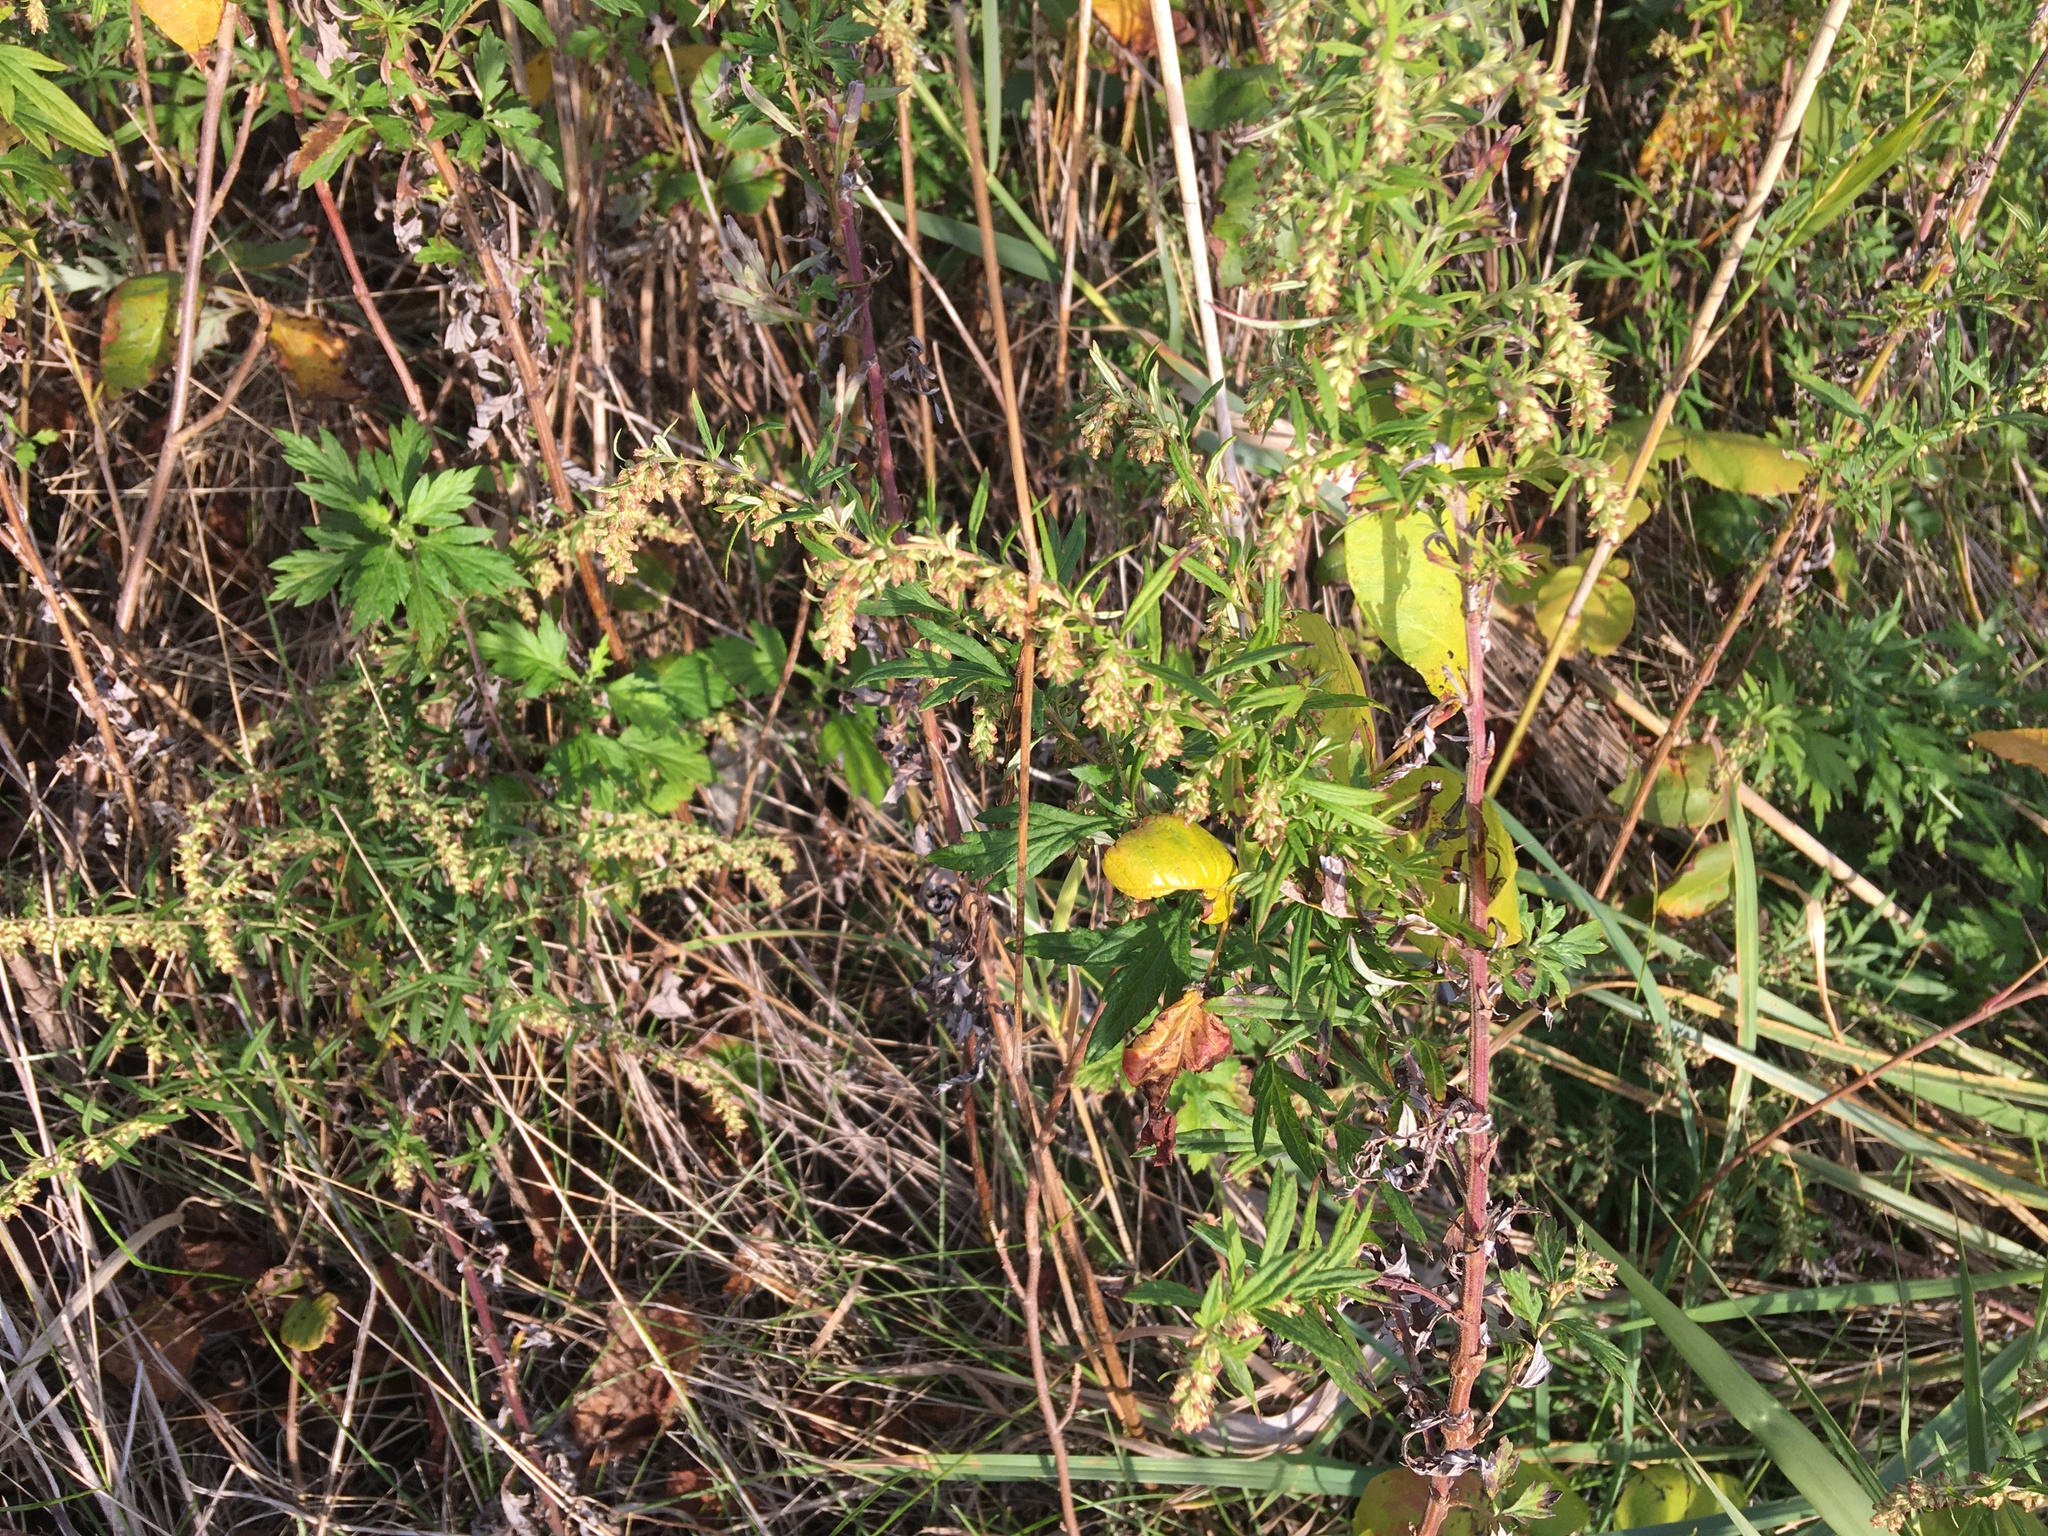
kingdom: Plantae
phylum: Tracheophyta
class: Magnoliopsida
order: Asterales
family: Asteraceae
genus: Artemisia
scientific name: Artemisia vulgaris
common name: Mugwort
